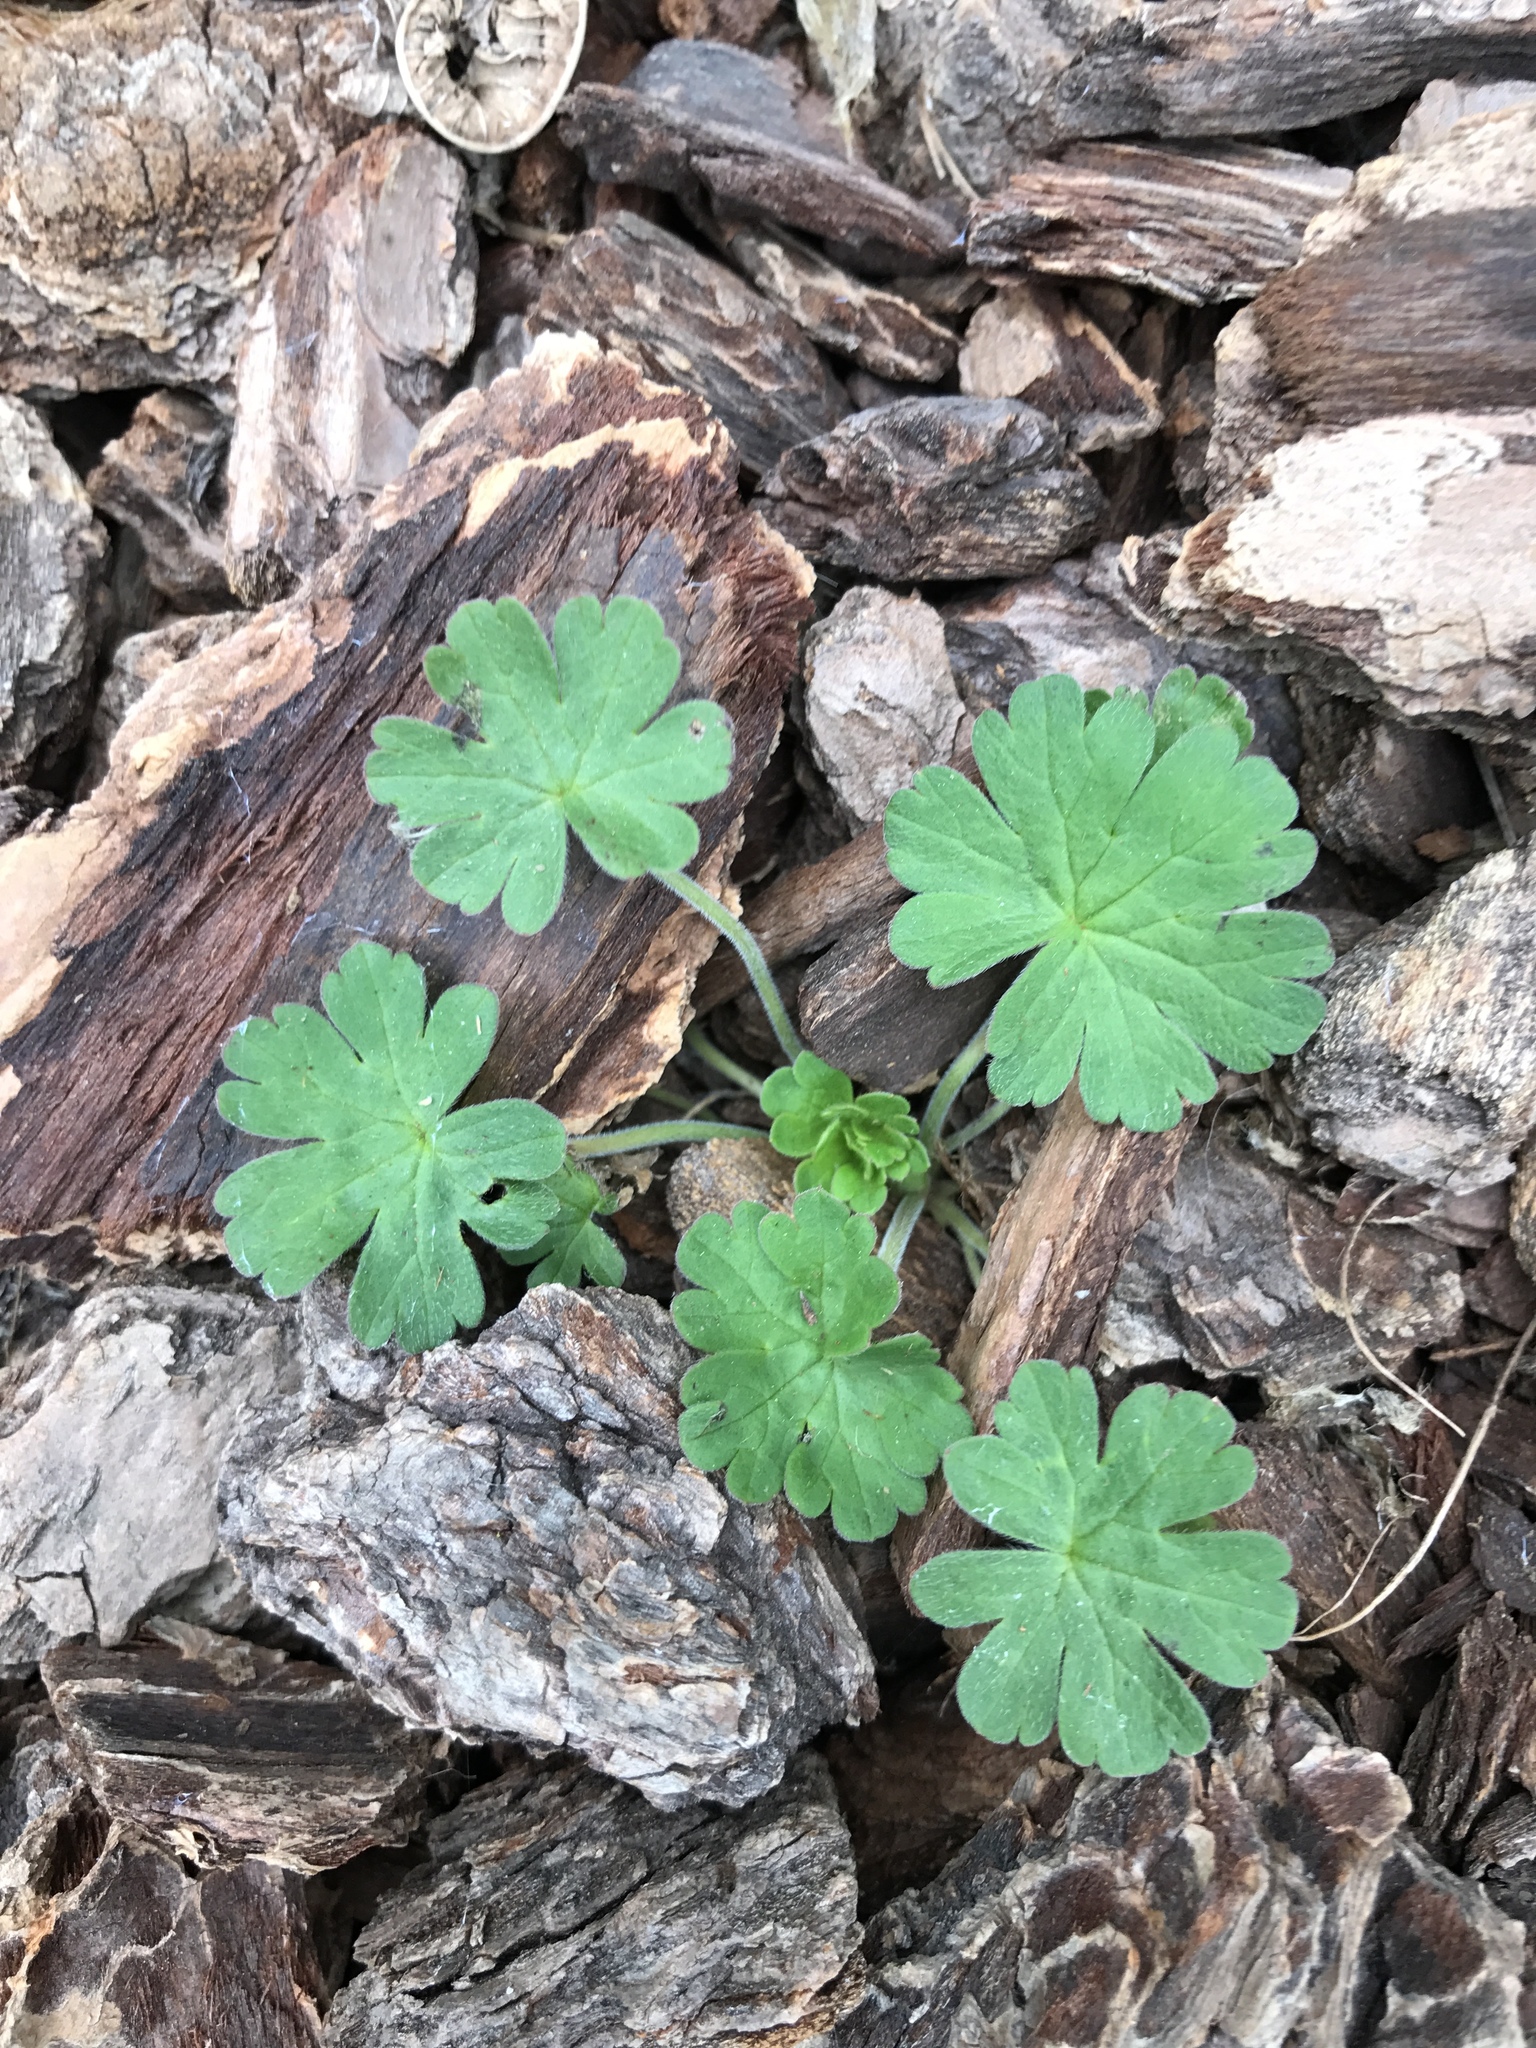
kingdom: Plantae
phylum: Tracheophyta
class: Magnoliopsida
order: Geraniales
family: Geraniaceae
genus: Geranium
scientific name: Geranium
